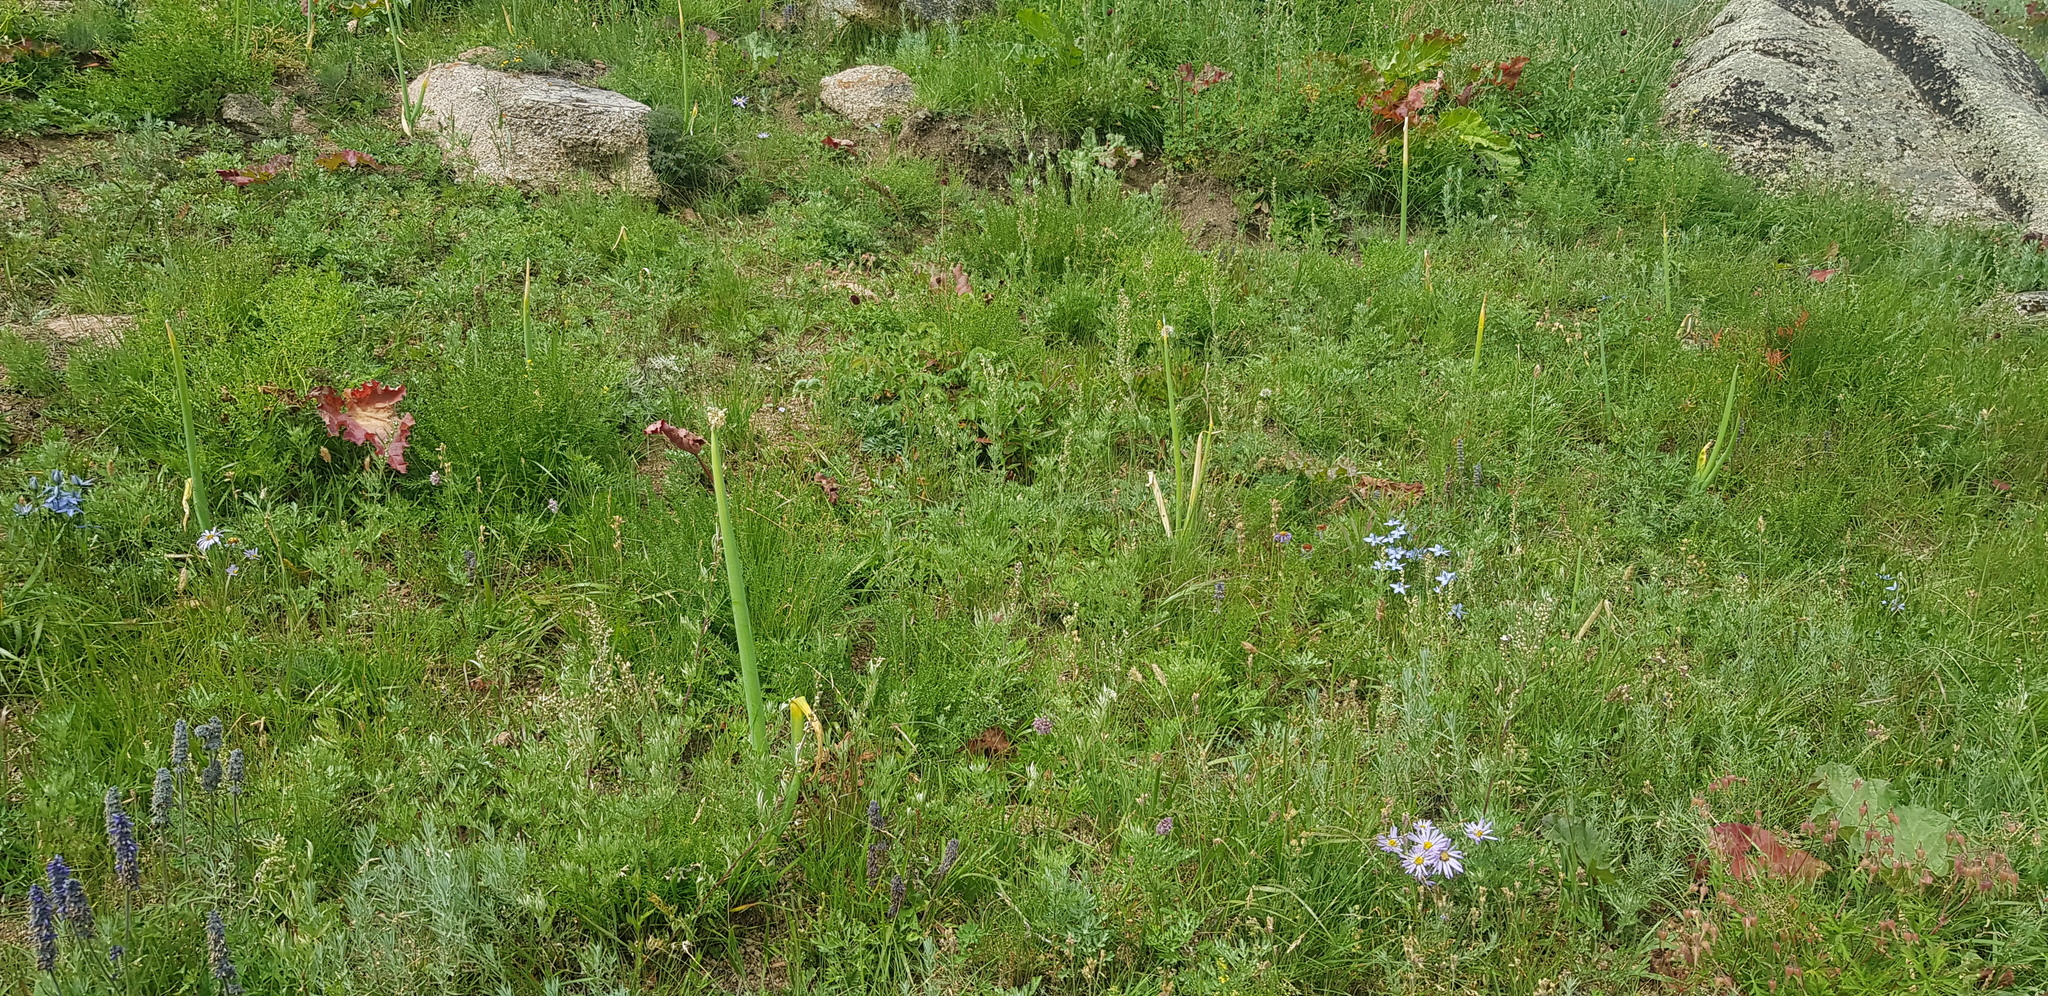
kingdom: Plantae
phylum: Tracheophyta
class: Liliopsida
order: Asparagales
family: Amaryllidaceae
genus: Allium
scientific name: Allium altaicum
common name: Altai onion
